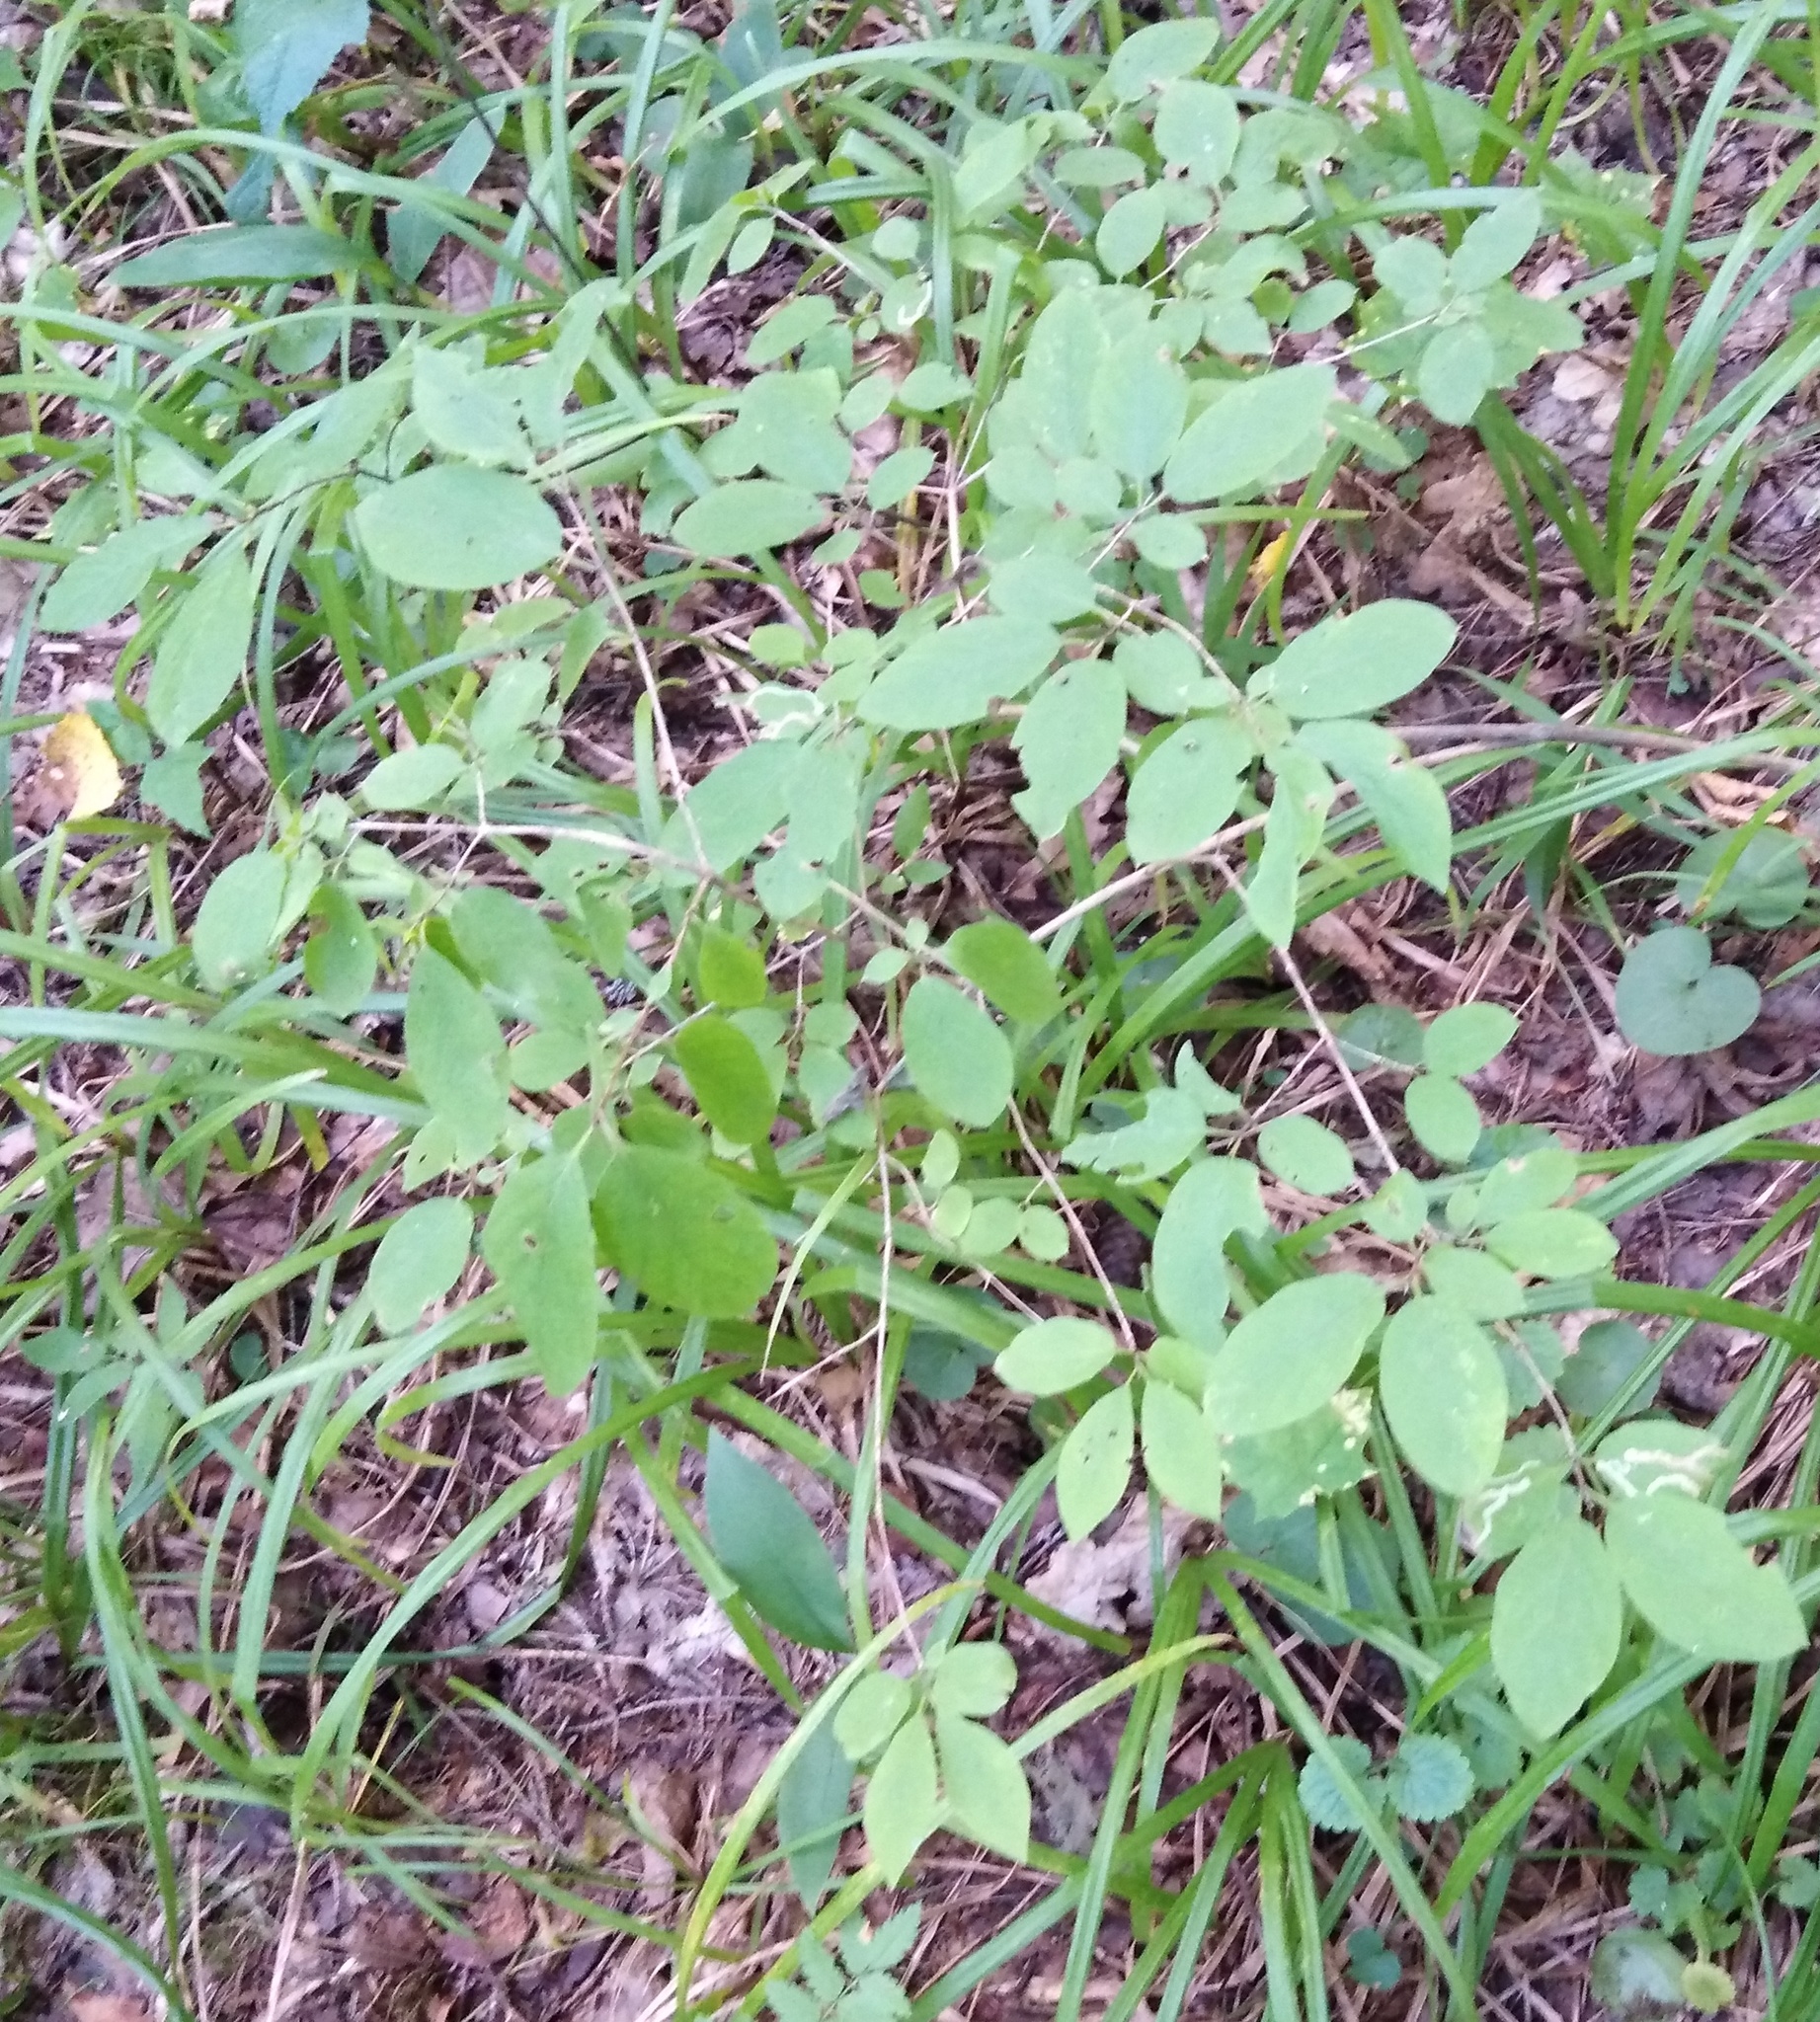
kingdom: Plantae
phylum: Tracheophyta
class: Magnoliopsida
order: Dipsacales
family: Caprifoliaceae
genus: Lonicera
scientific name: Lonicera xylosteum
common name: Fly honeysuckle
